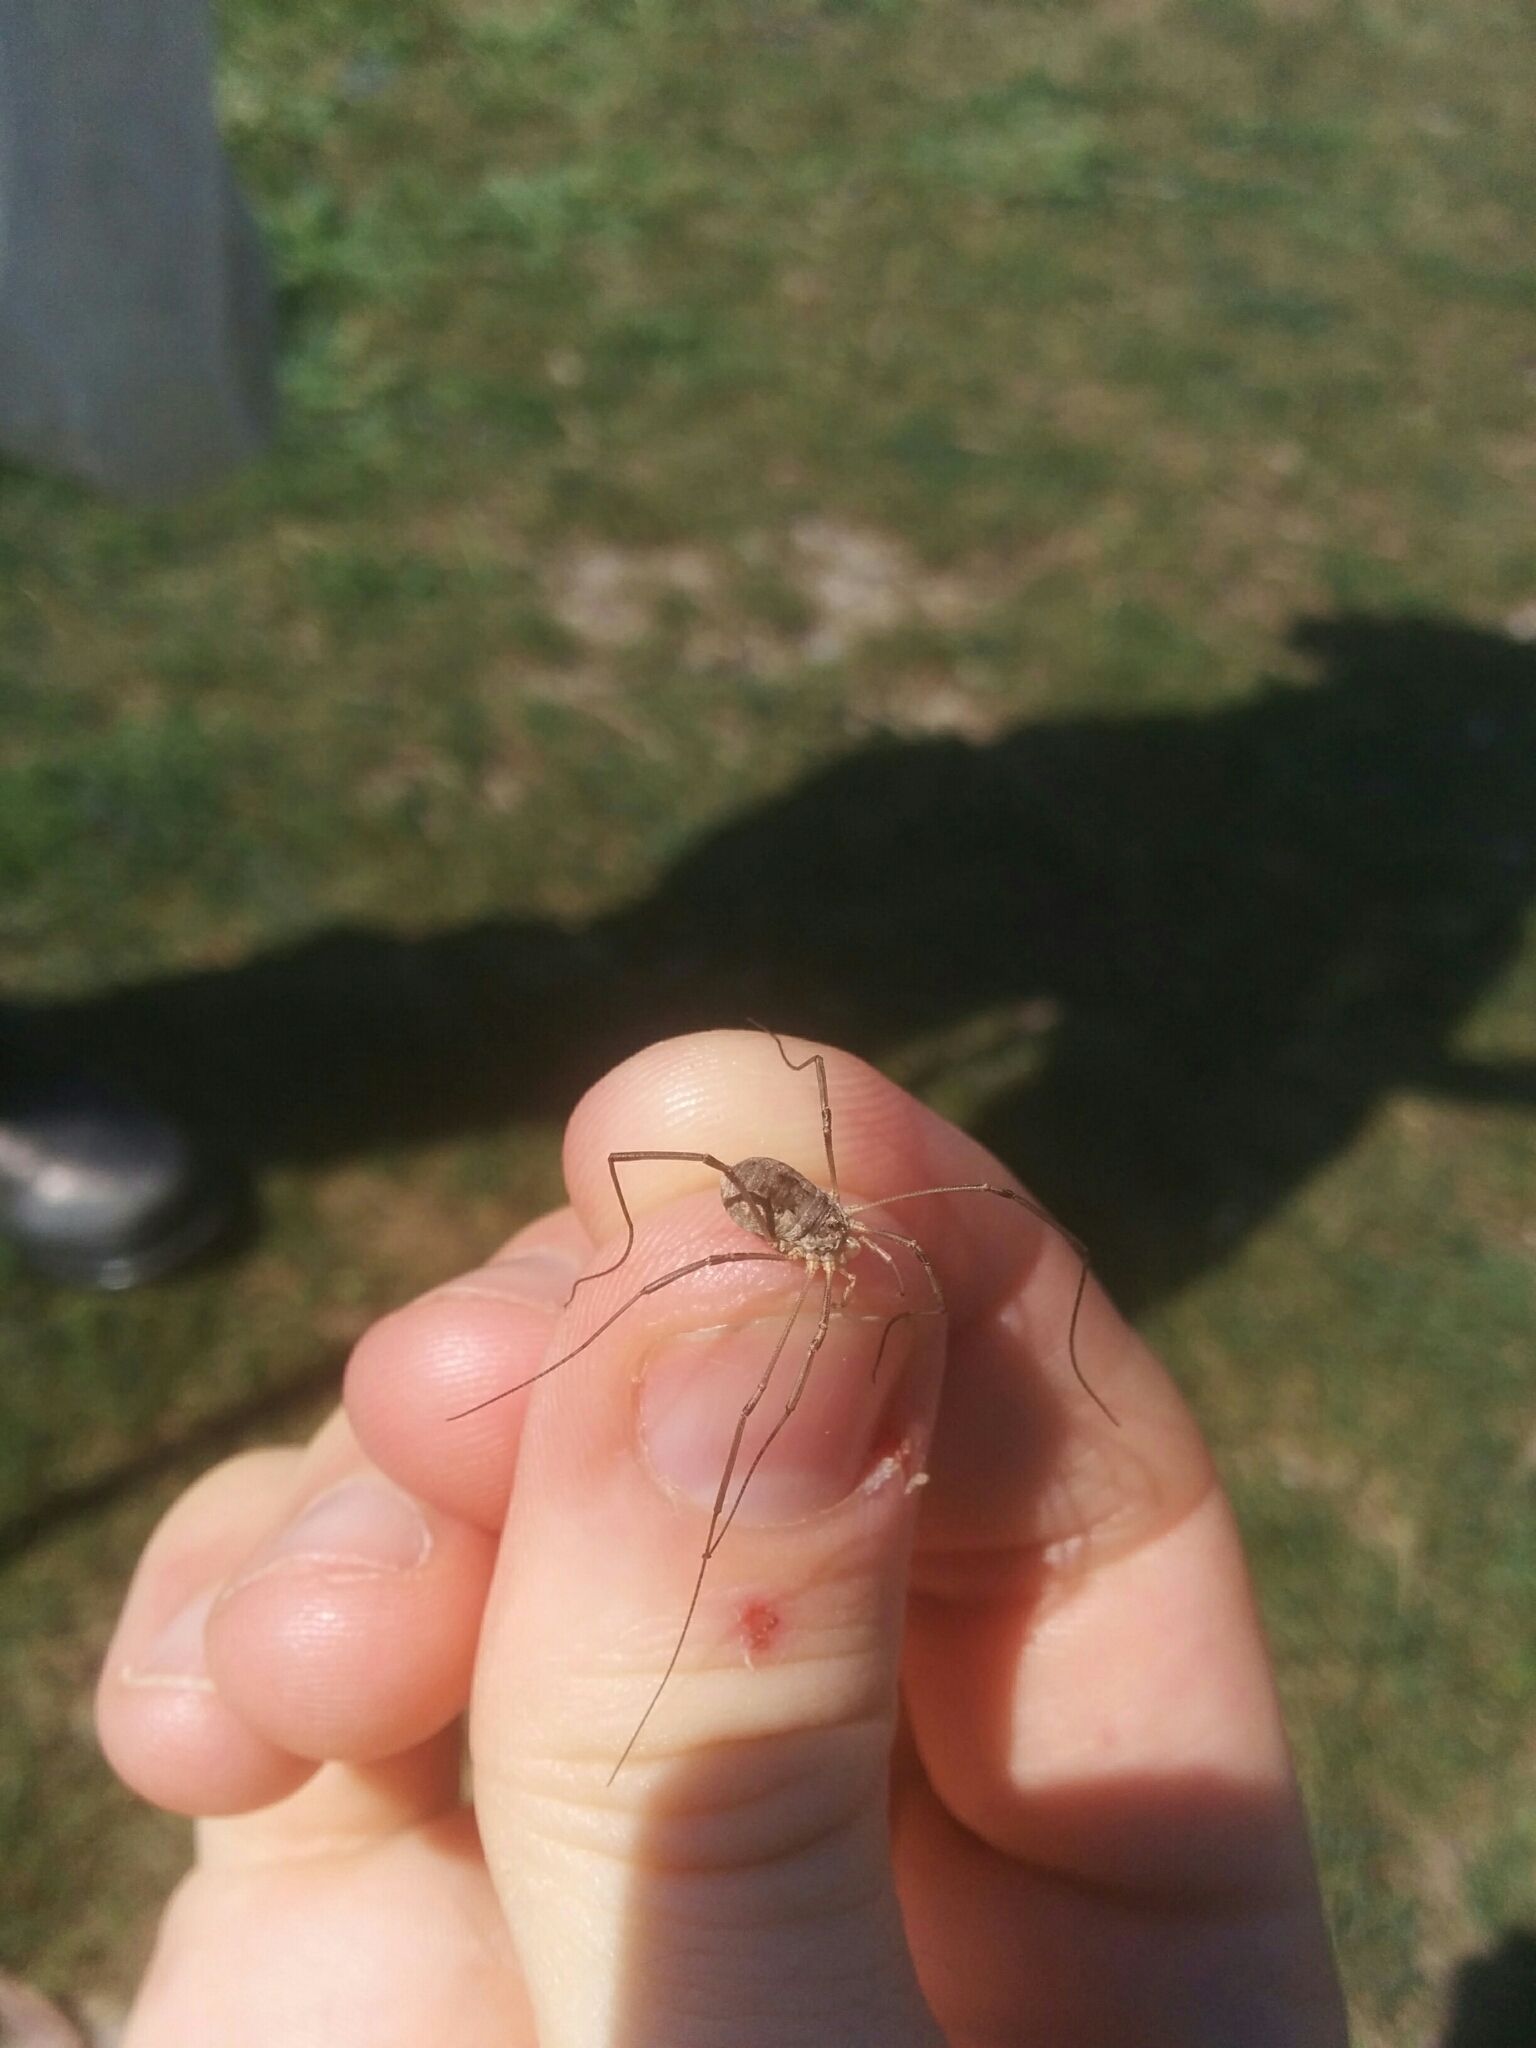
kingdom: Animalia
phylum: Arthropoda
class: Arachnida
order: Opiliones
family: Phalangiidae
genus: Phalangium
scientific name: Phalangium opilio
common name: Daddy longleg
